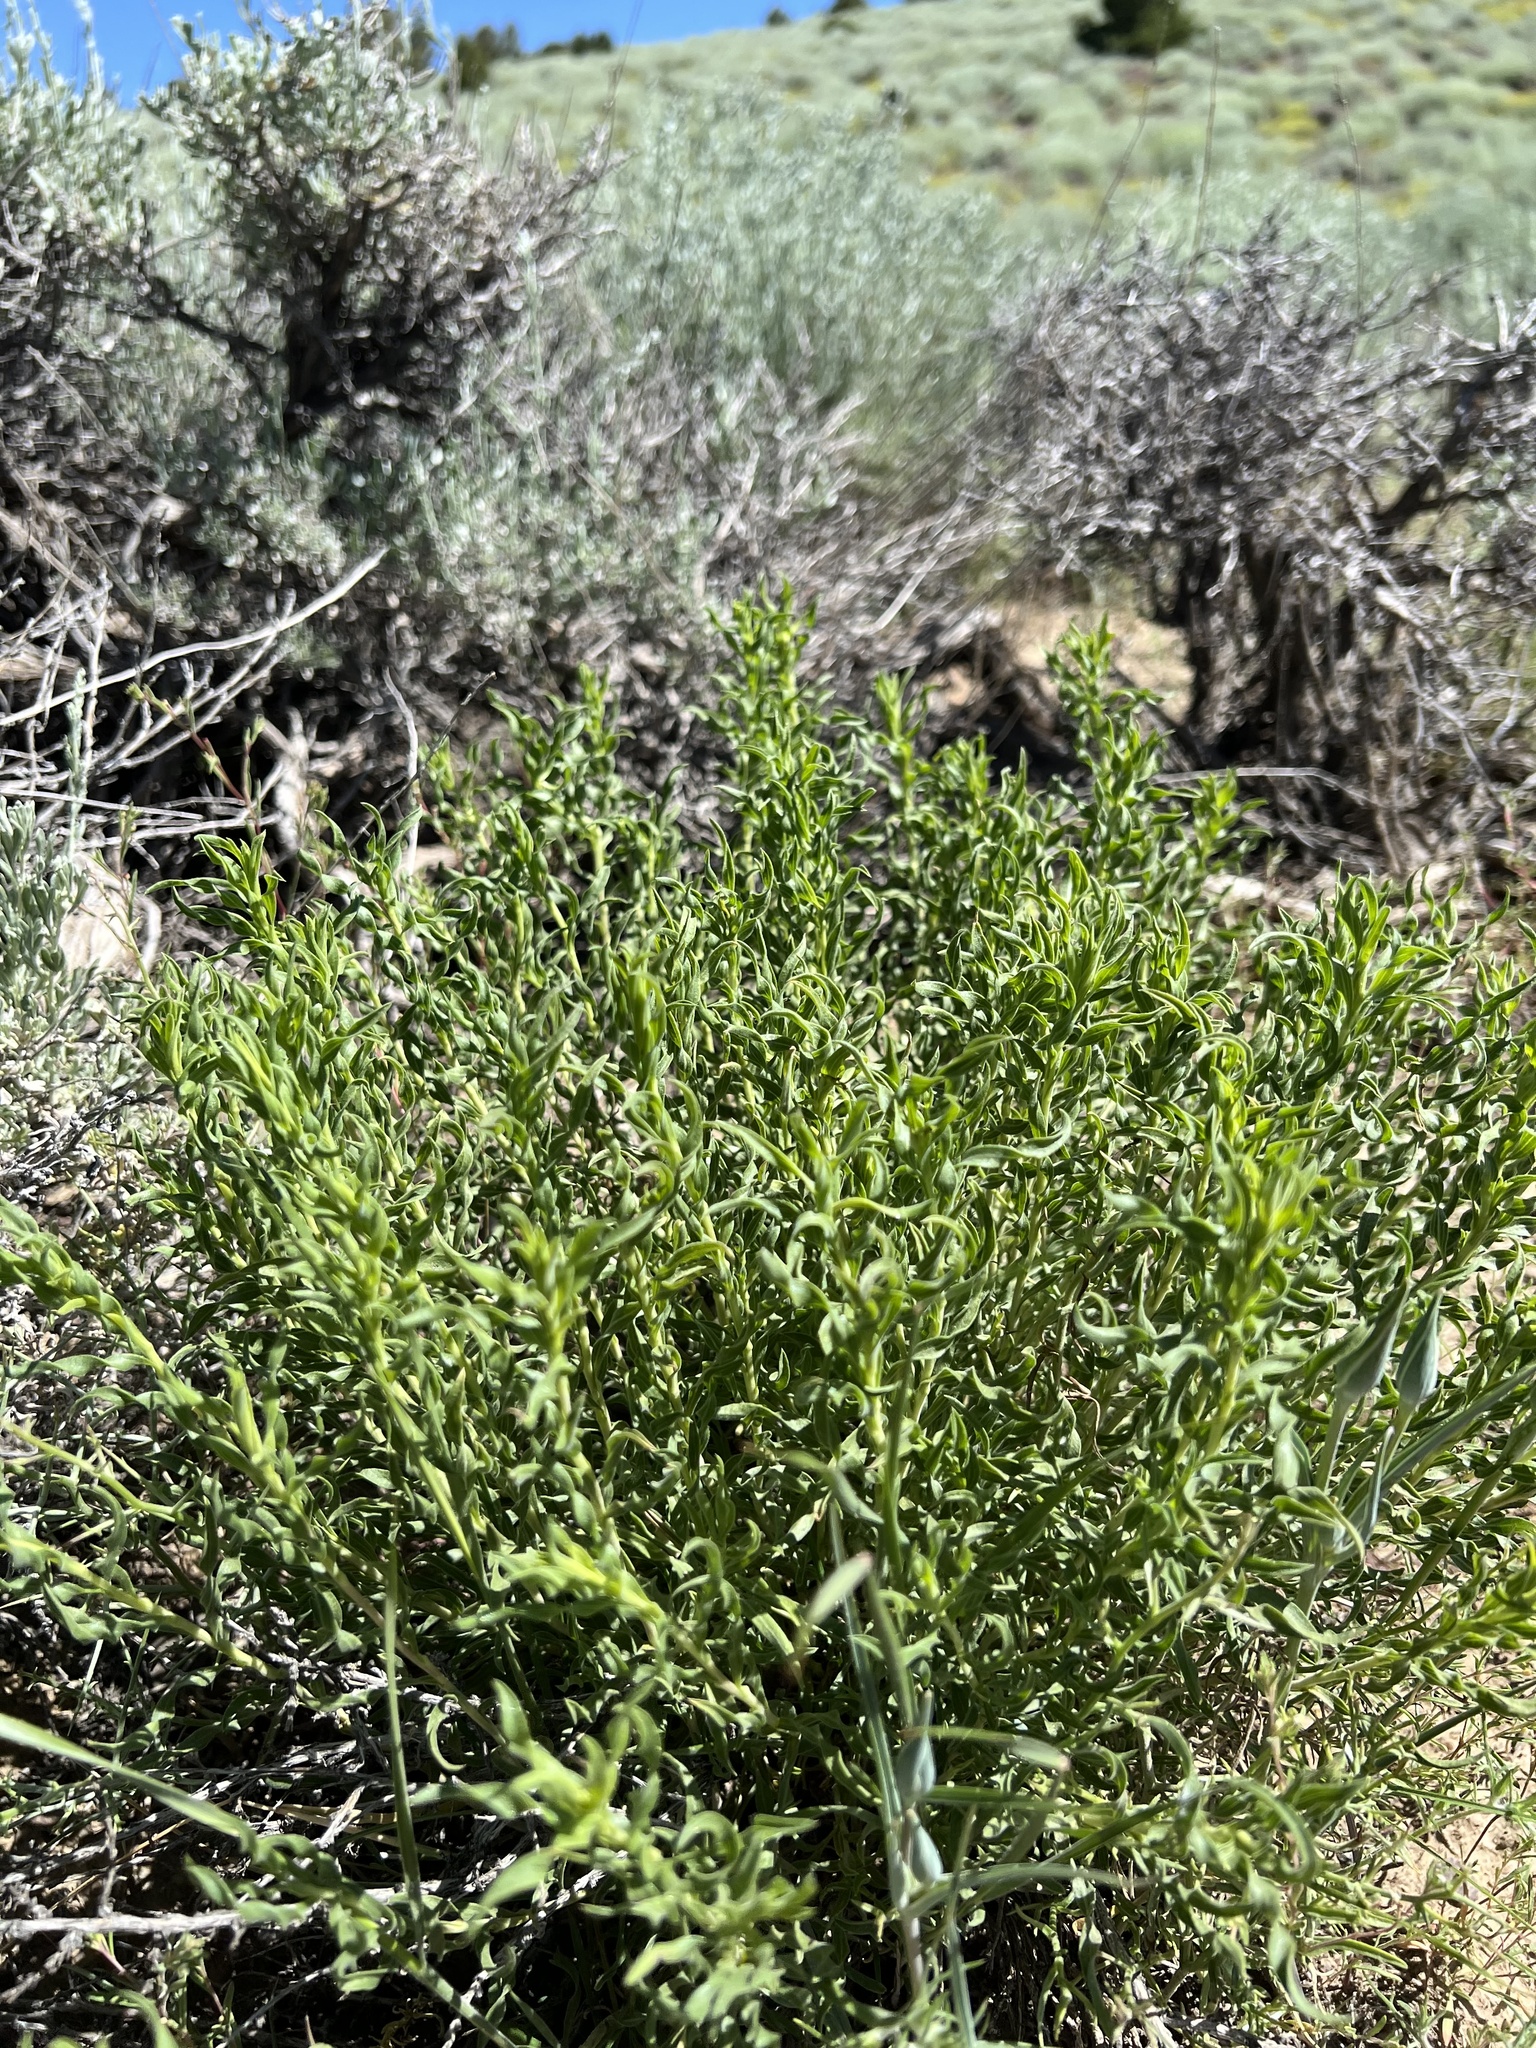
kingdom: Plantae
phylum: Tracheophyta
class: Magnoliopsida
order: Asterales
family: Asteraceae
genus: Chrysothamnus
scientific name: Chrysothamnus viscidiflorus
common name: Yellow rabbitbrush
